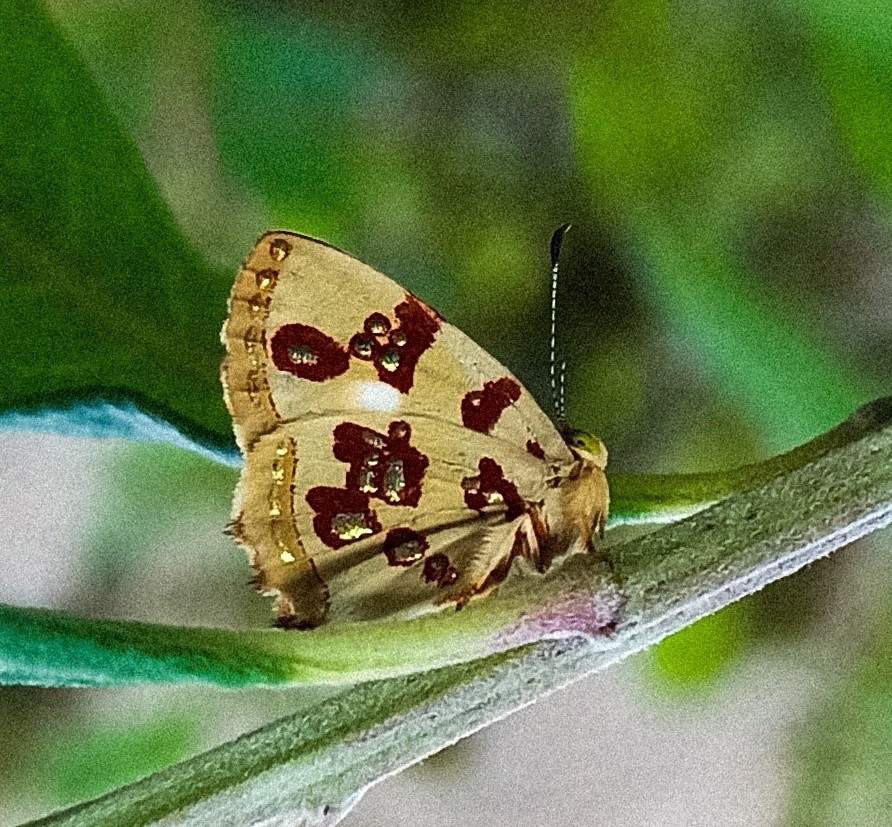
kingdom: Animalia
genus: Anteros
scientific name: Anteros formosus
